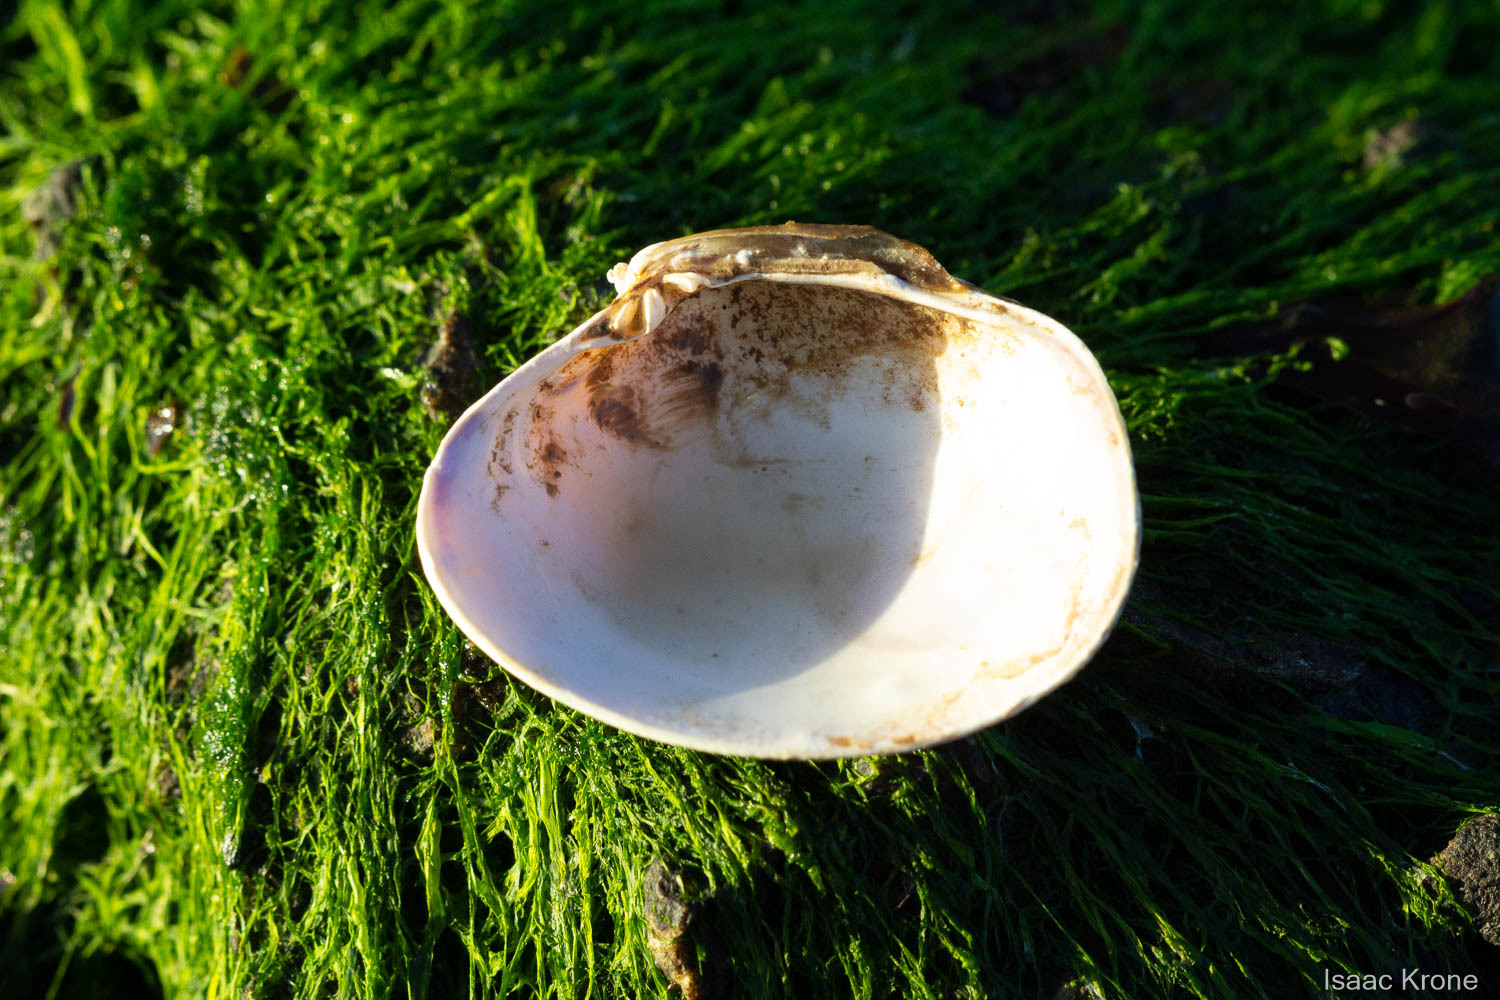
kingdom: Animalia
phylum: Mollusca
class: Bivalvia
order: Venerida
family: Veneridae
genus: Ruditapes
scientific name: Ruditapes philippinarum
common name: Manila clam
